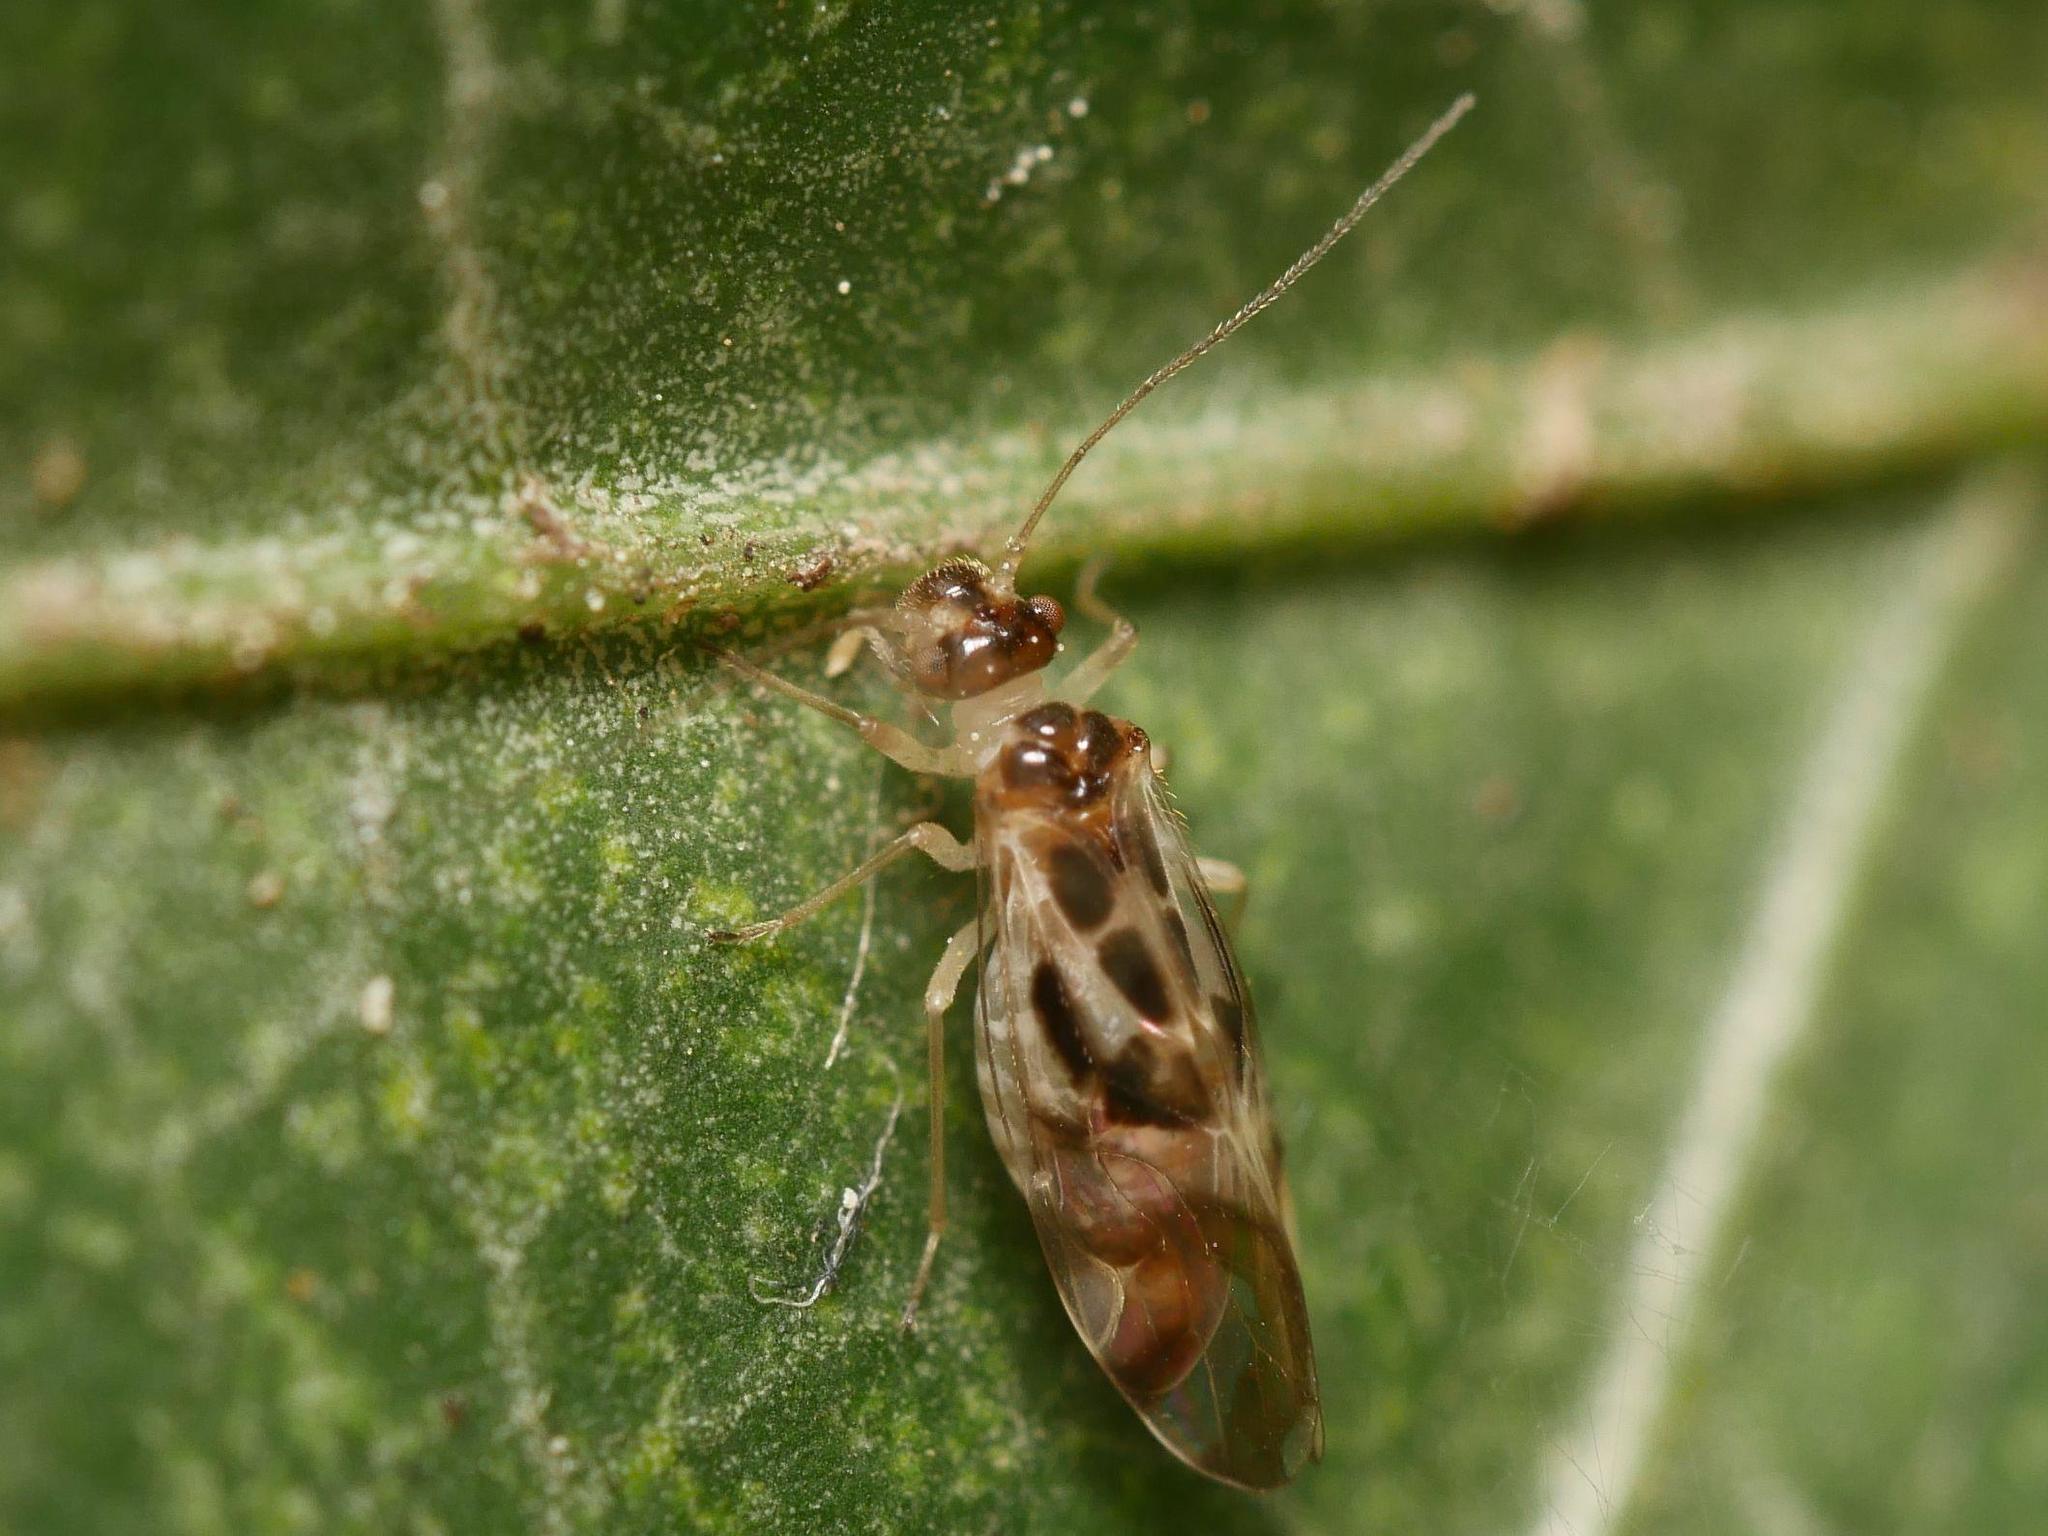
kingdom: Animalia
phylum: Arthropoda
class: Insecta
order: Psocodea
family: Stenopsocidae
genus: Graphopsocus
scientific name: Graphopsocus cruciatus
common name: Lizard bark louse
